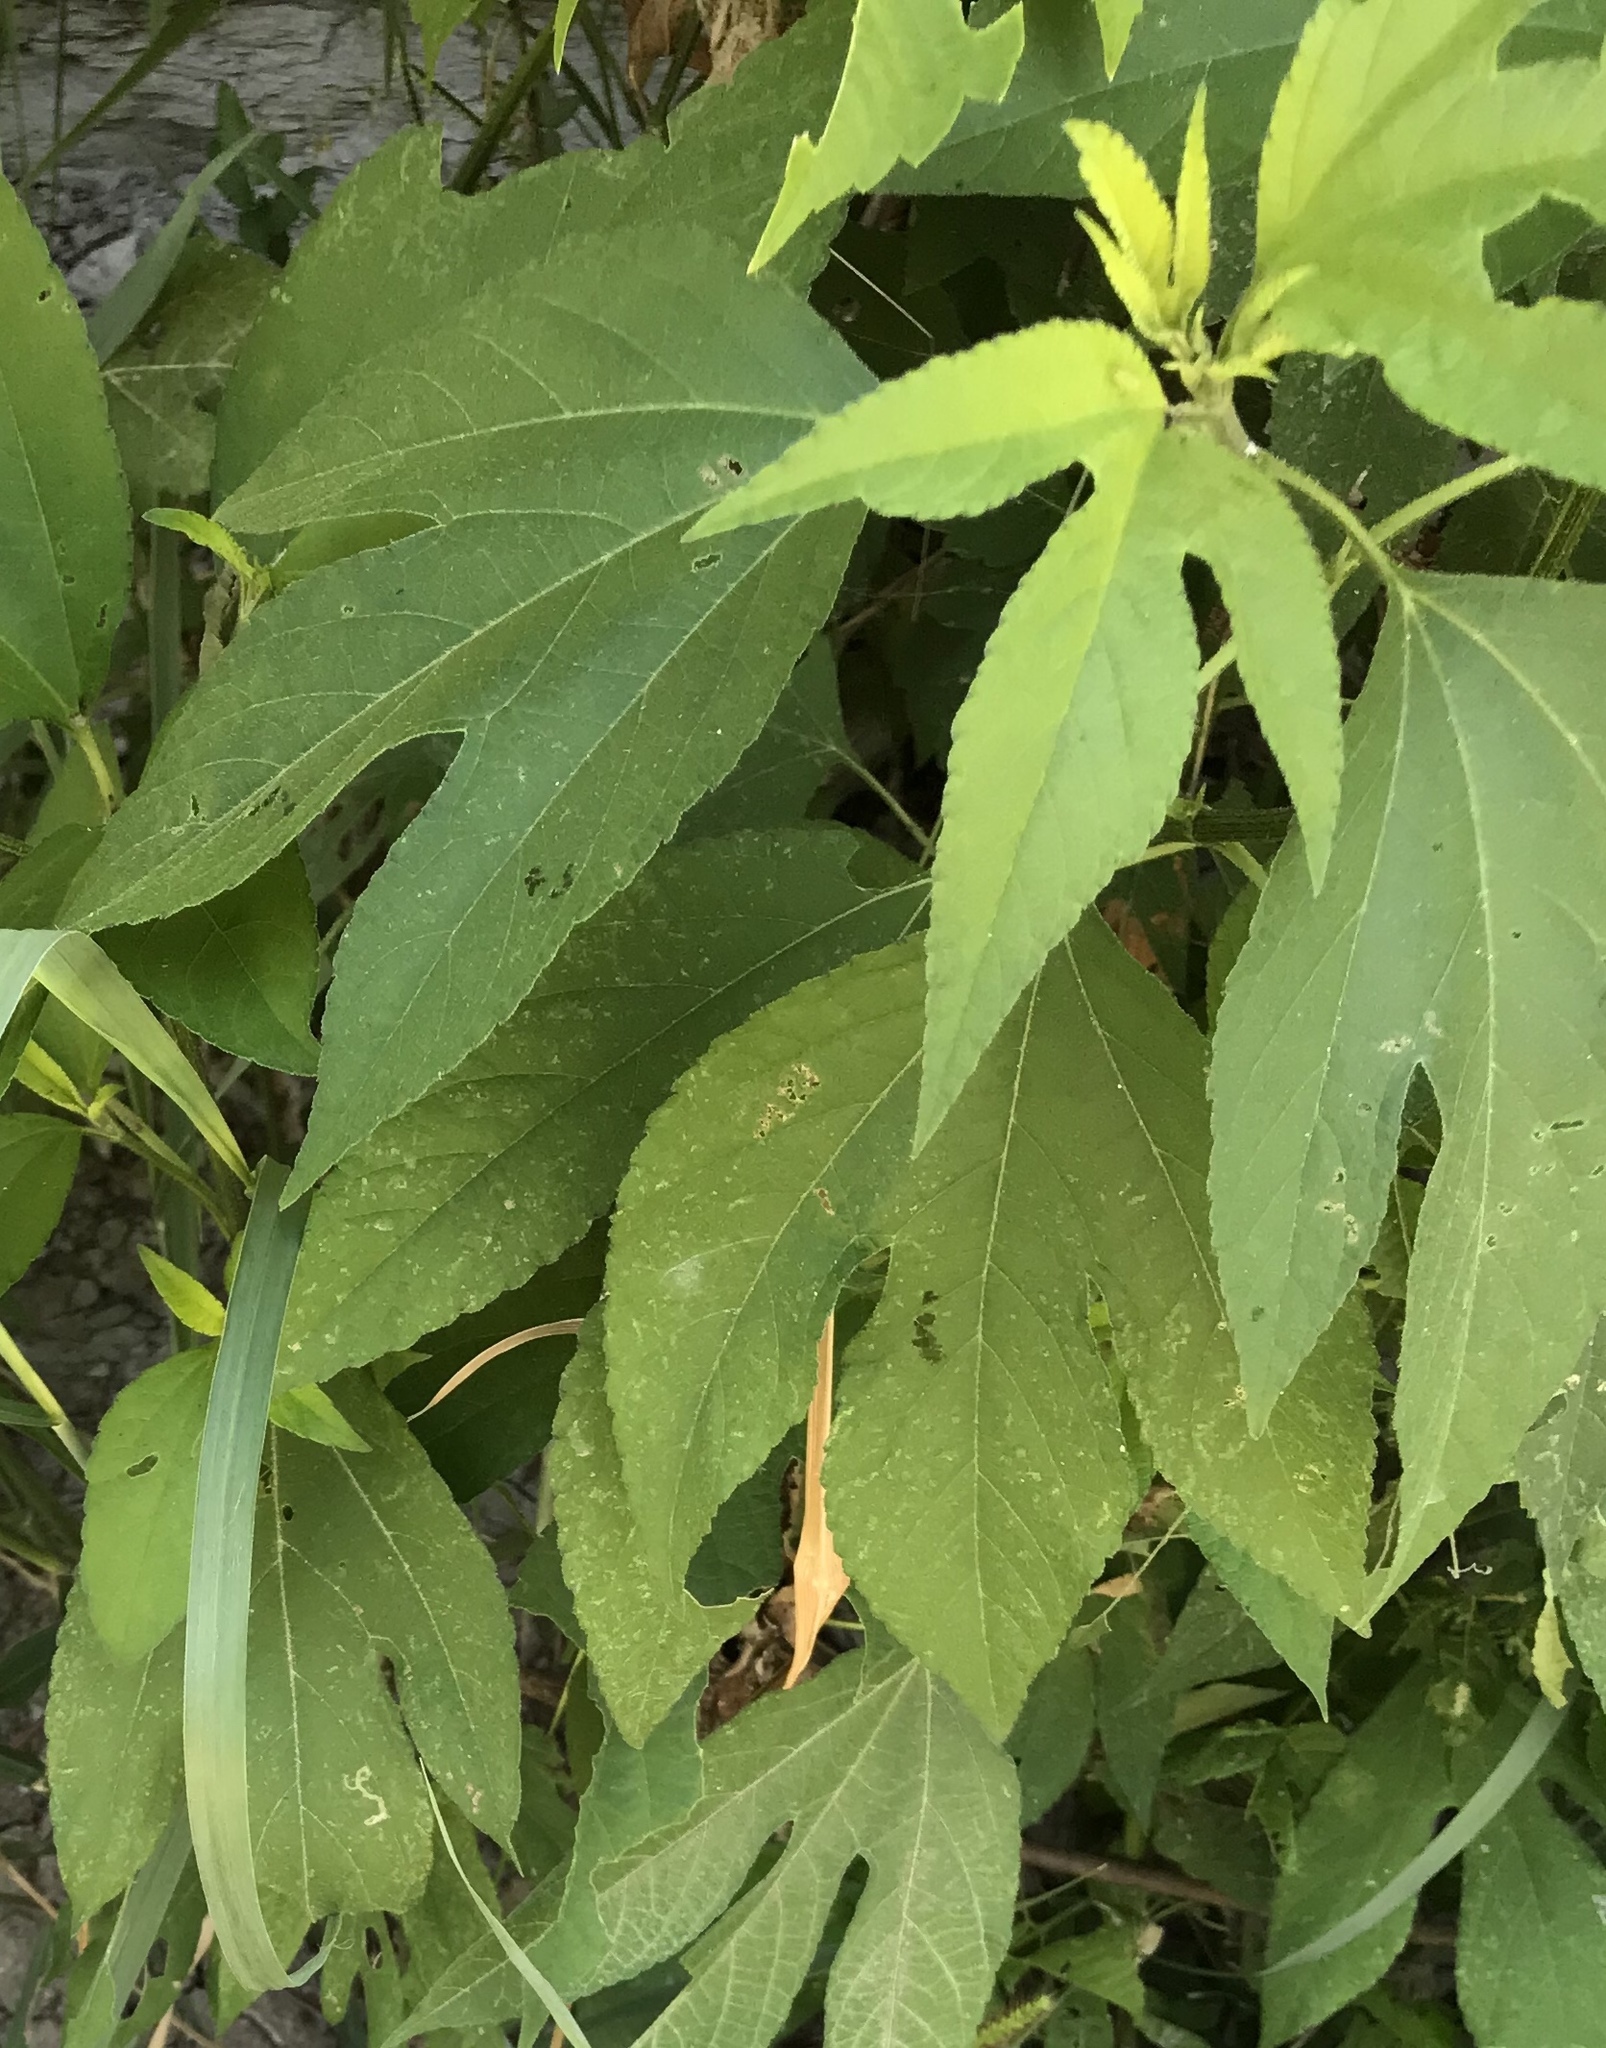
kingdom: Plantae
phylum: Tracheophyta
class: Magnoliopsida
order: Asterales
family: Asteraceae
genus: Ambrosia
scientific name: Ambrosia trifida
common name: Giant ragweed
